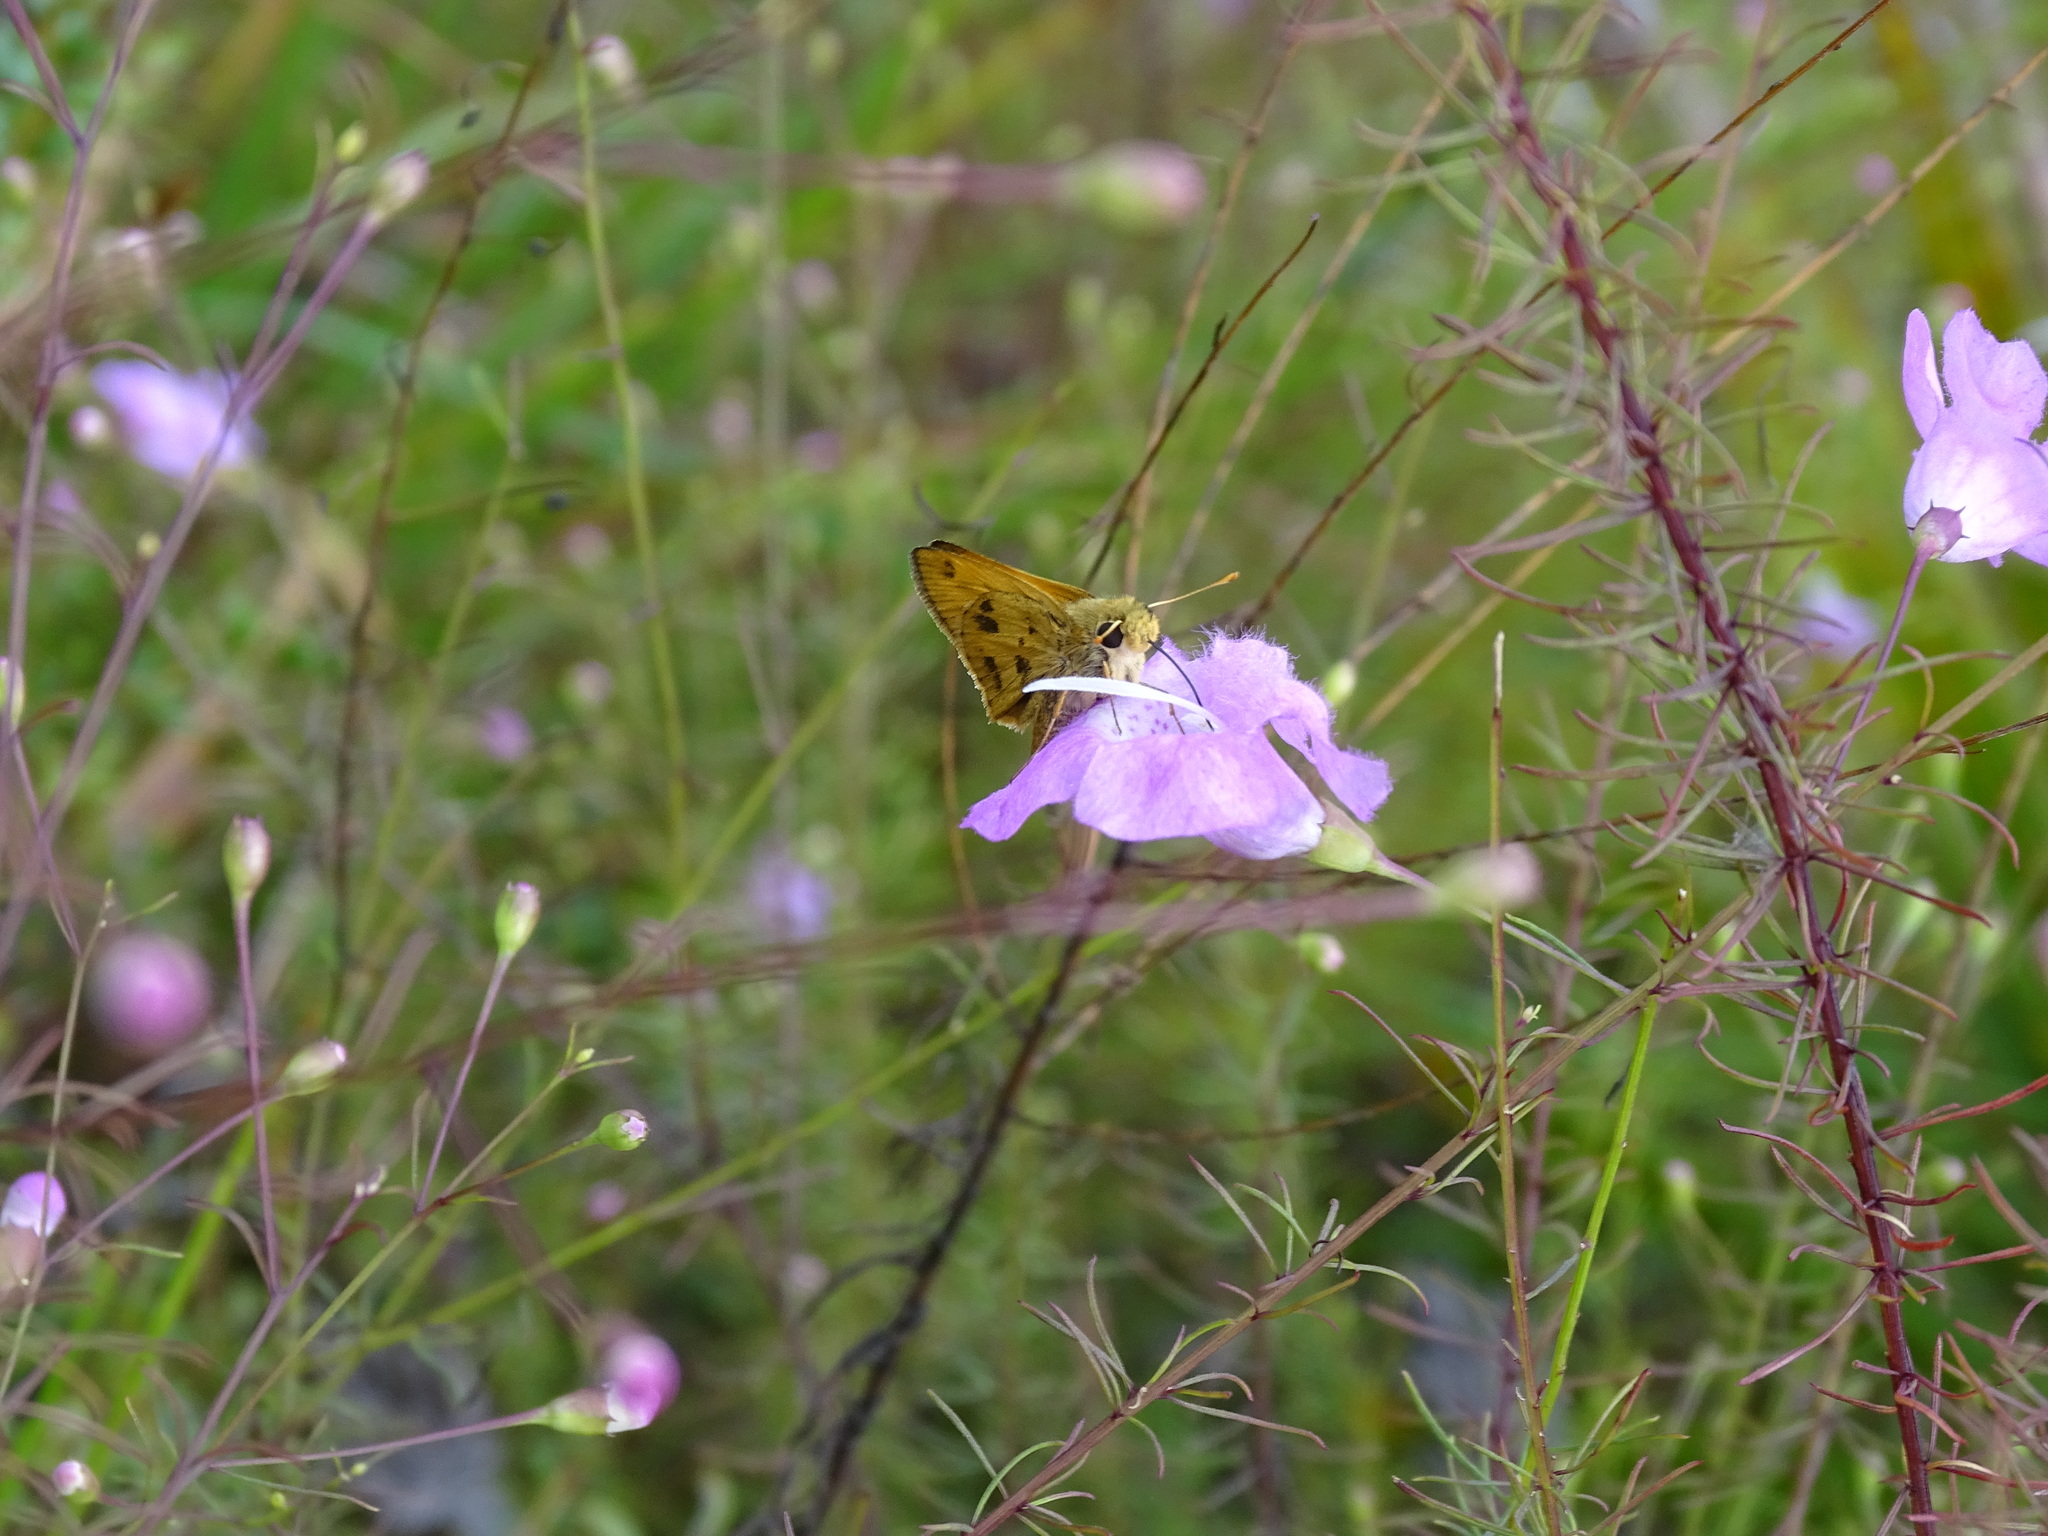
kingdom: Animalia
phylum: Arthropoda
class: Insecta
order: Lepidoptera
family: Hesperiidae
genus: Polites
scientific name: Polites vibex
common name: Whirlabout
